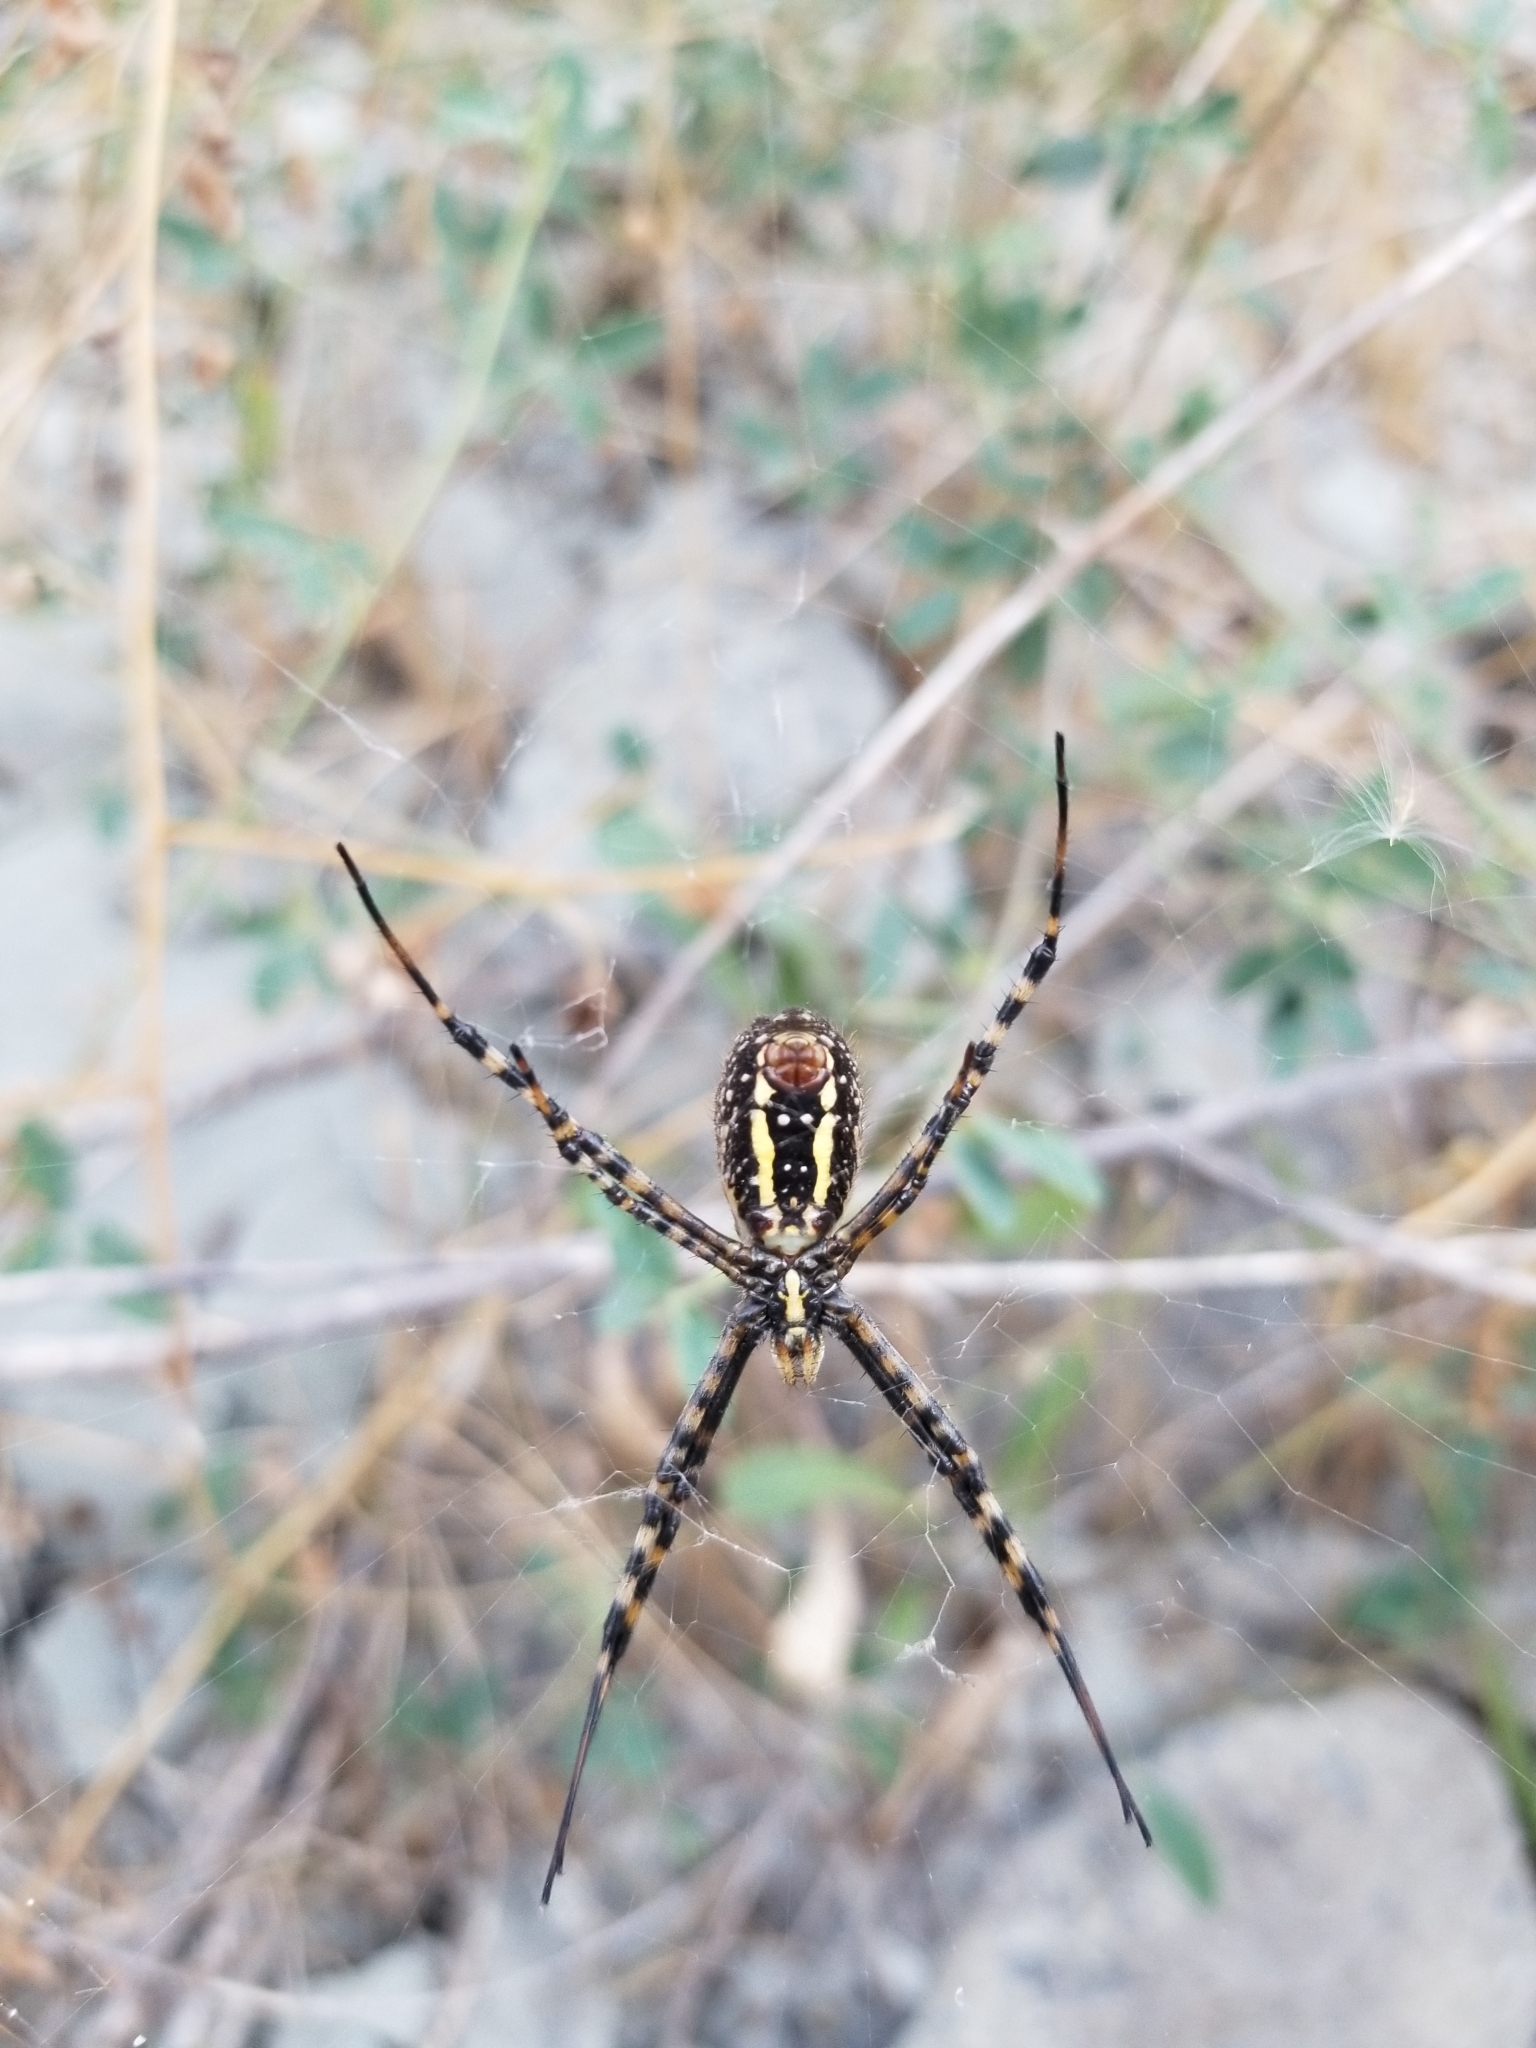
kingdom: Animalia
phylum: Arthropoda
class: Arachnida
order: Araneae
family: Araneidae
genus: Argiope
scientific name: Argiope trifasciata
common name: Banded garden spider
